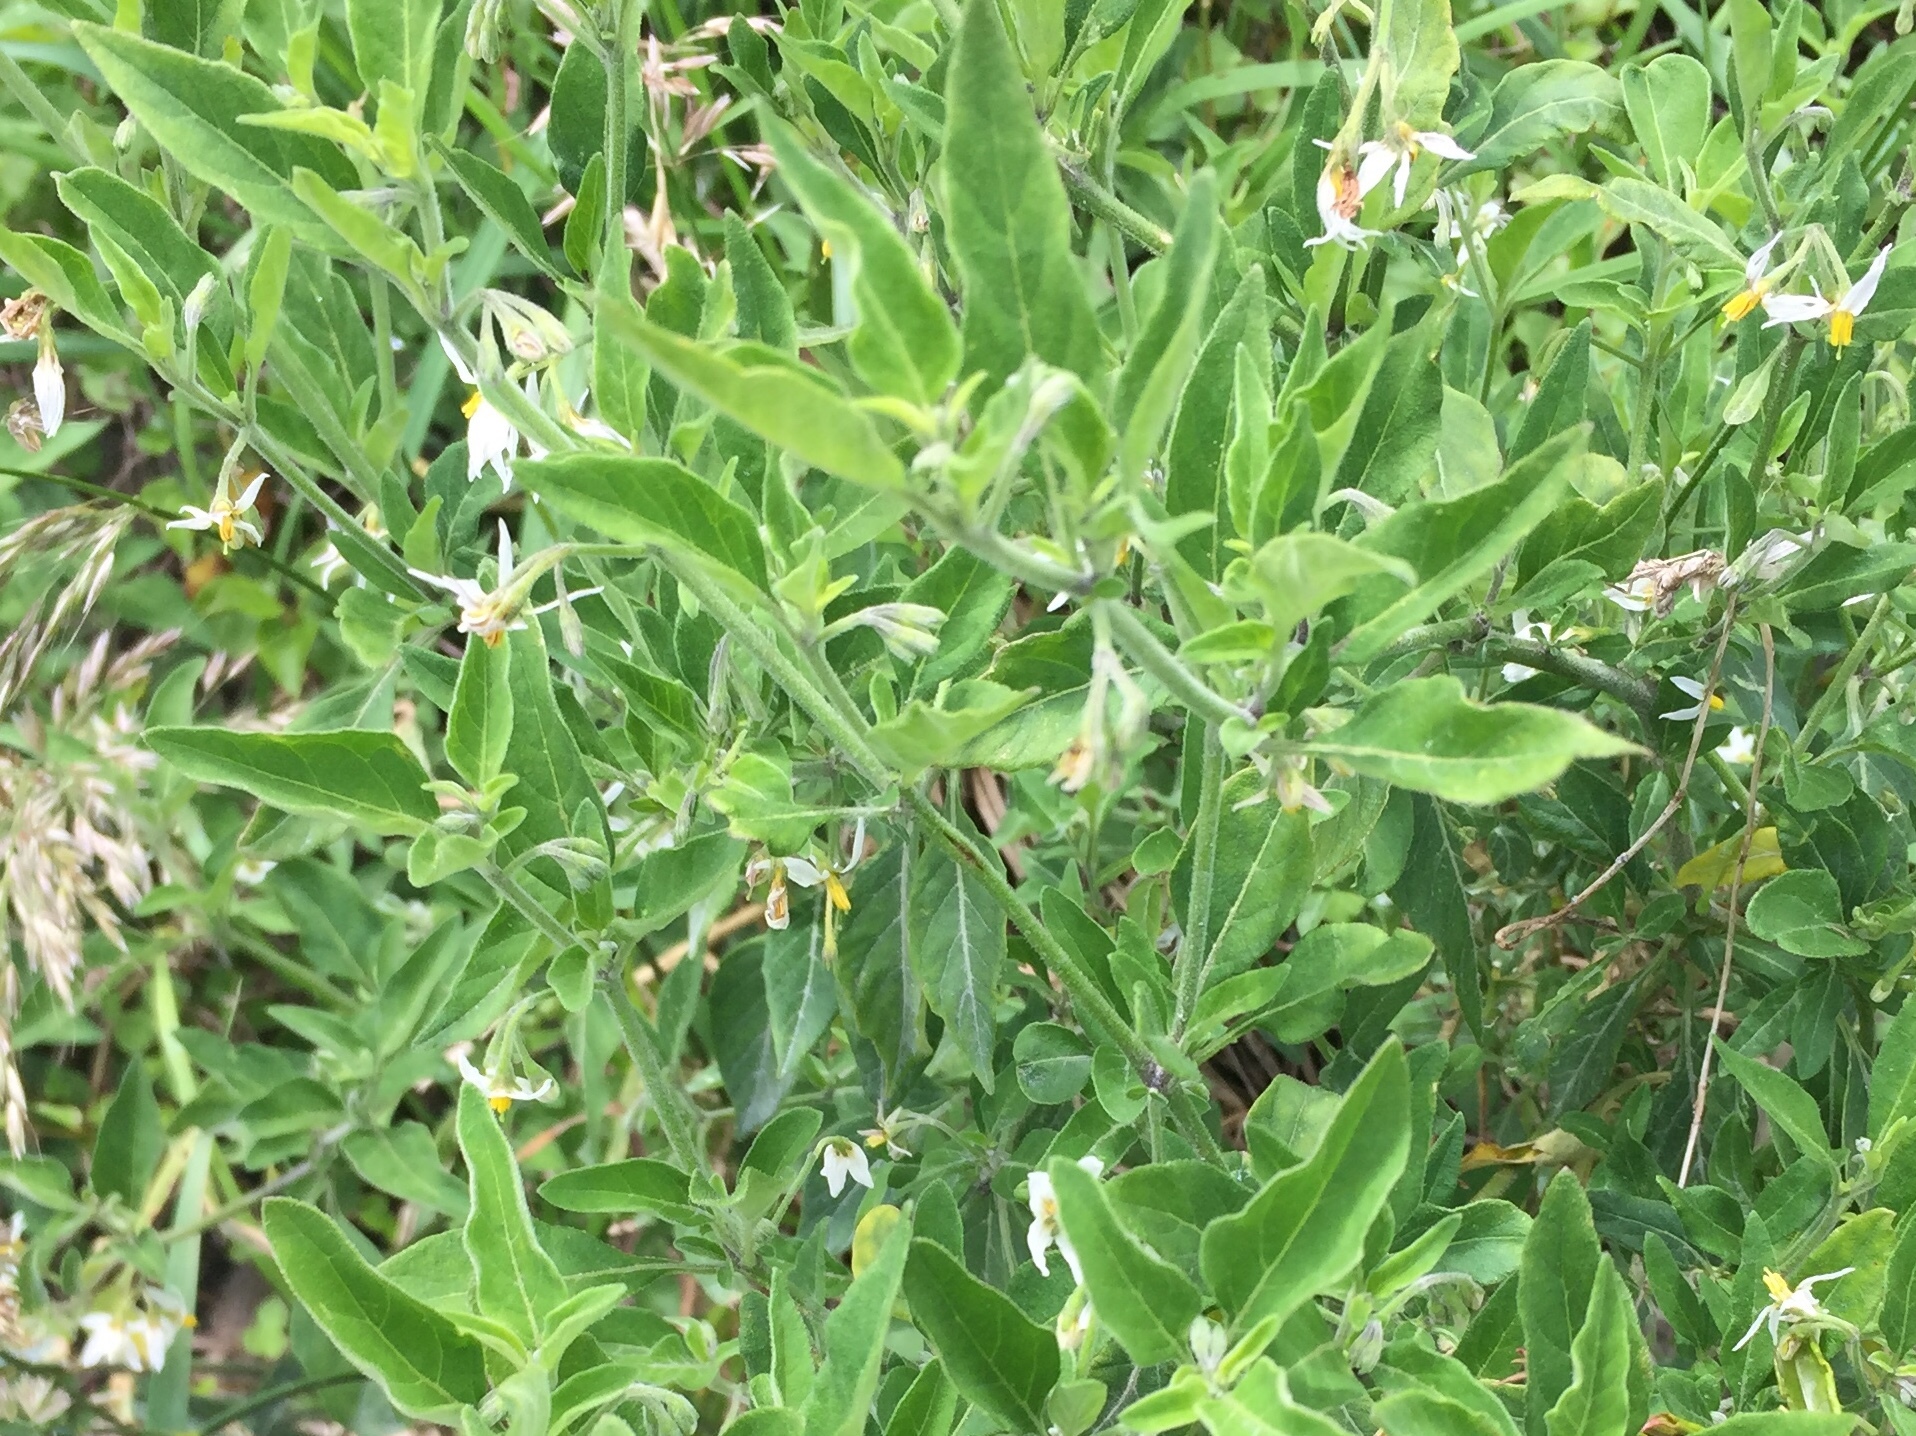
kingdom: Plantae
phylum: Tracheophyta
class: Magnoliopsida
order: Solanales
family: Solanaceae
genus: Solanum
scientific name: Solanum chenopodioides
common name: Tall nightshade
